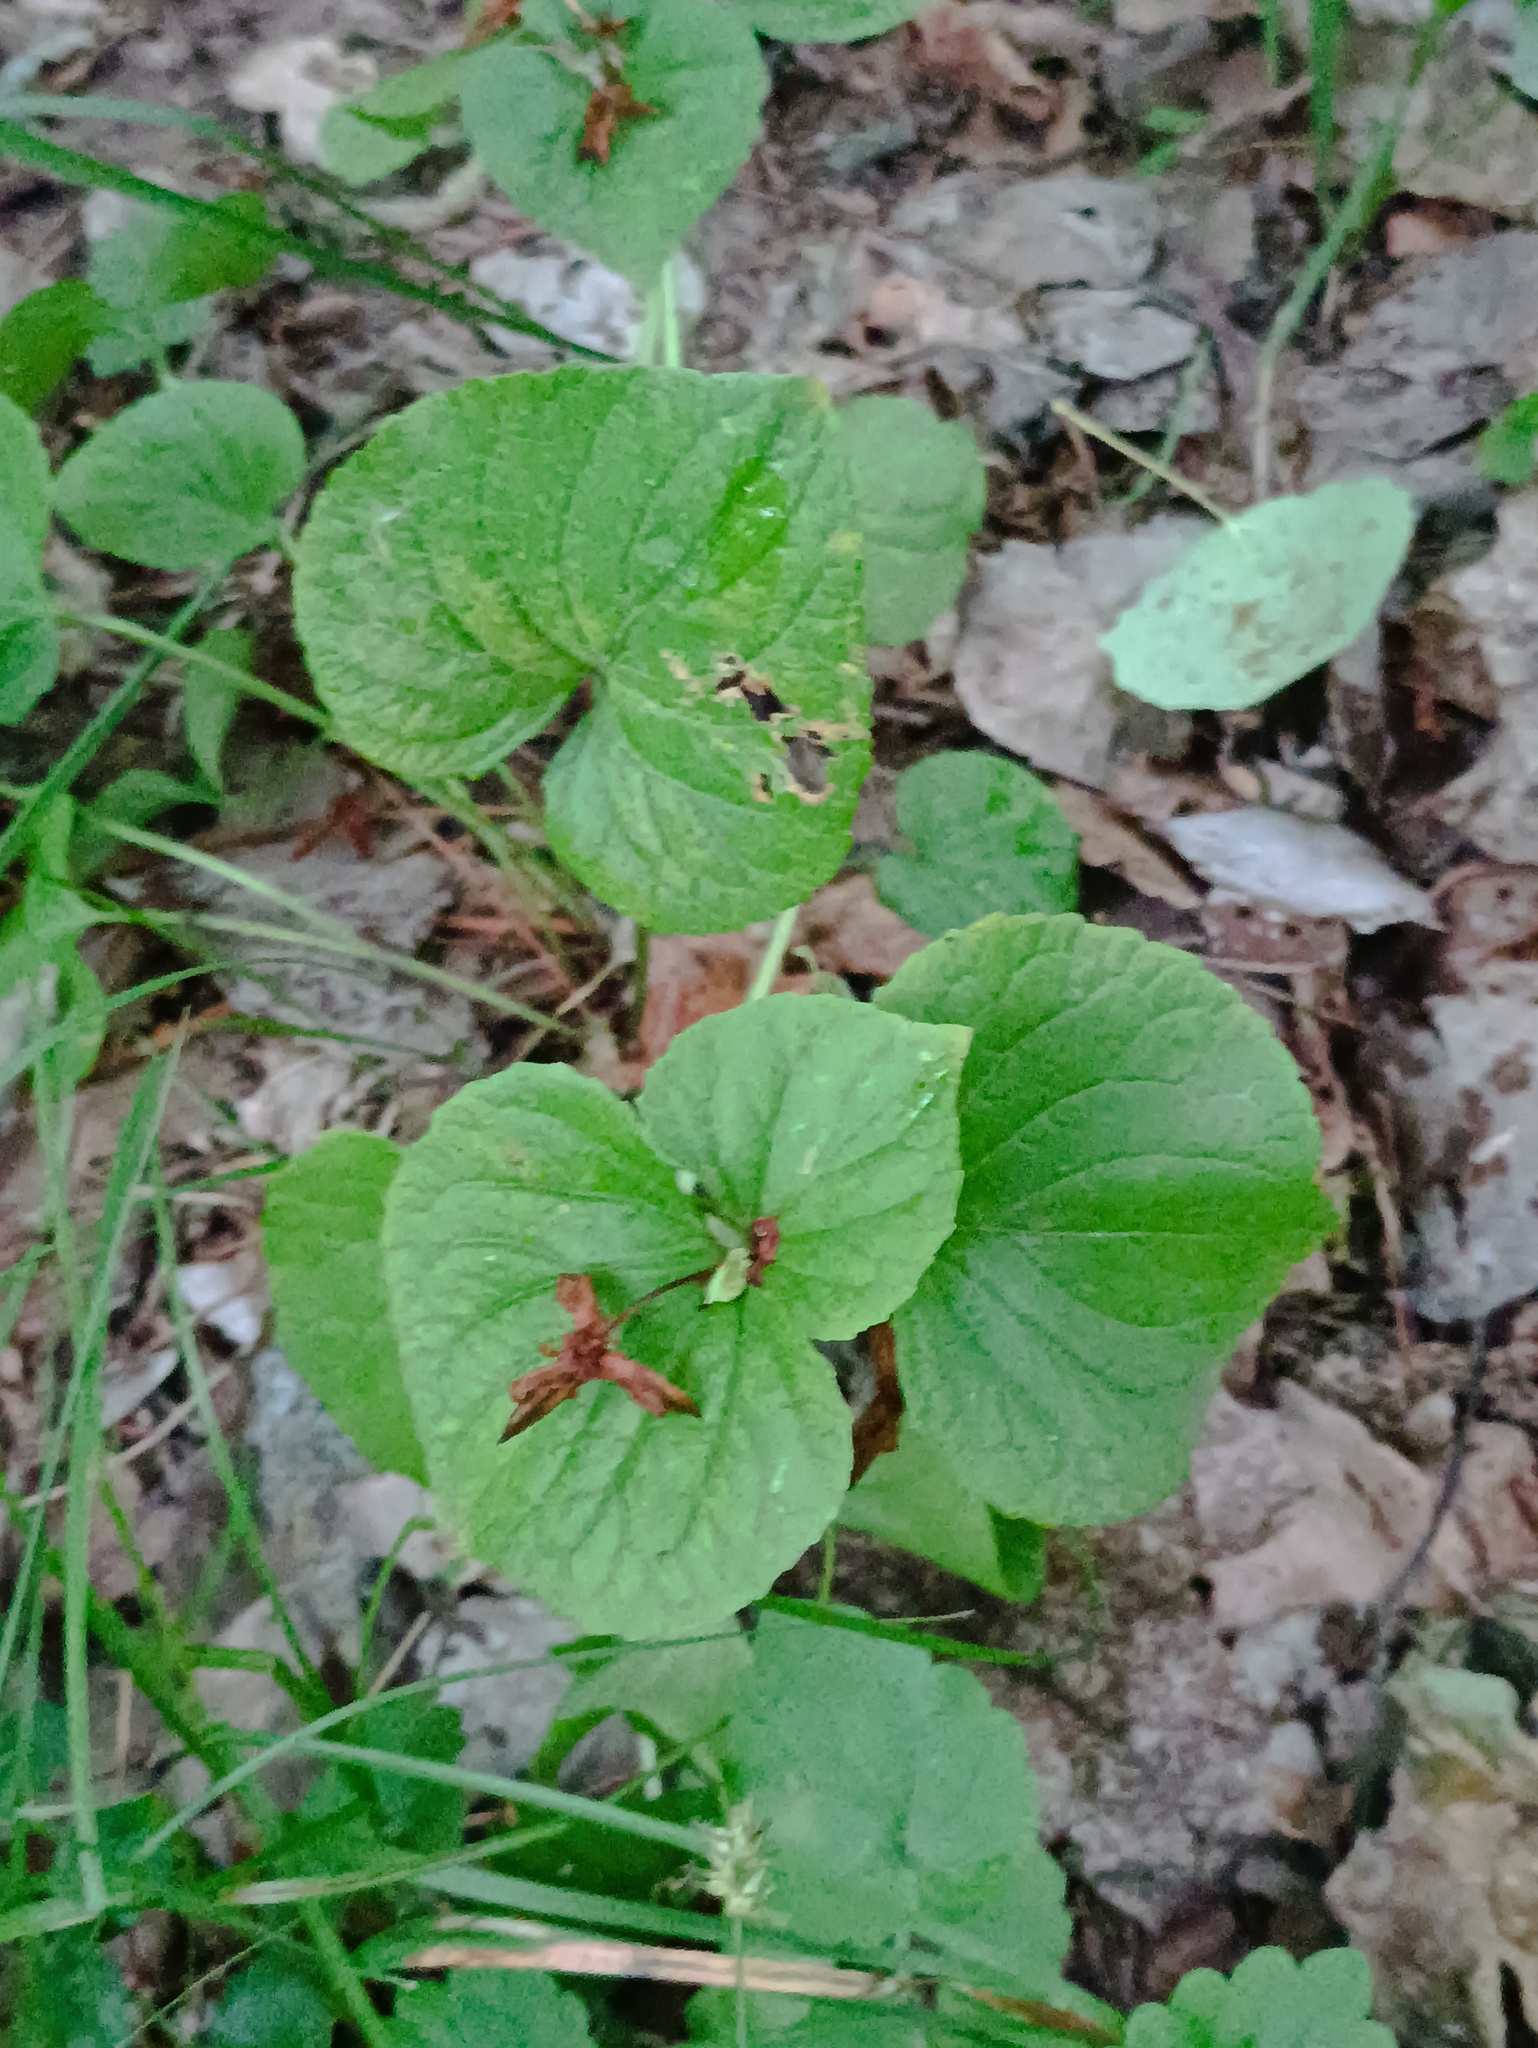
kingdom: Plantae
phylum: Tracheophyta
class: Magnoliopsida
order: Malpighiales
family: Violaceae
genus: Viola
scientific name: Viola mirabilis
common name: Wonder violet
